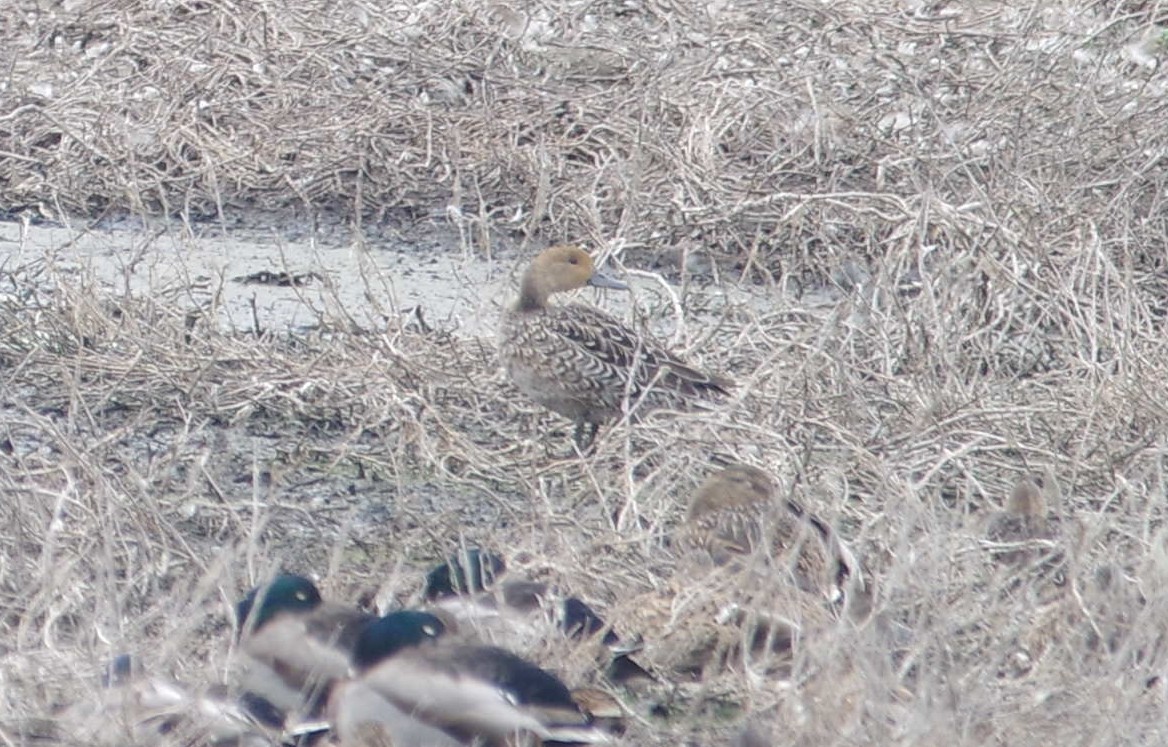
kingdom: Animalia
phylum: Chordata
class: Aves
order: Anseriformes
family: Anatidae
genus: Anas
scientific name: Anas acuta
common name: Northern pintail
